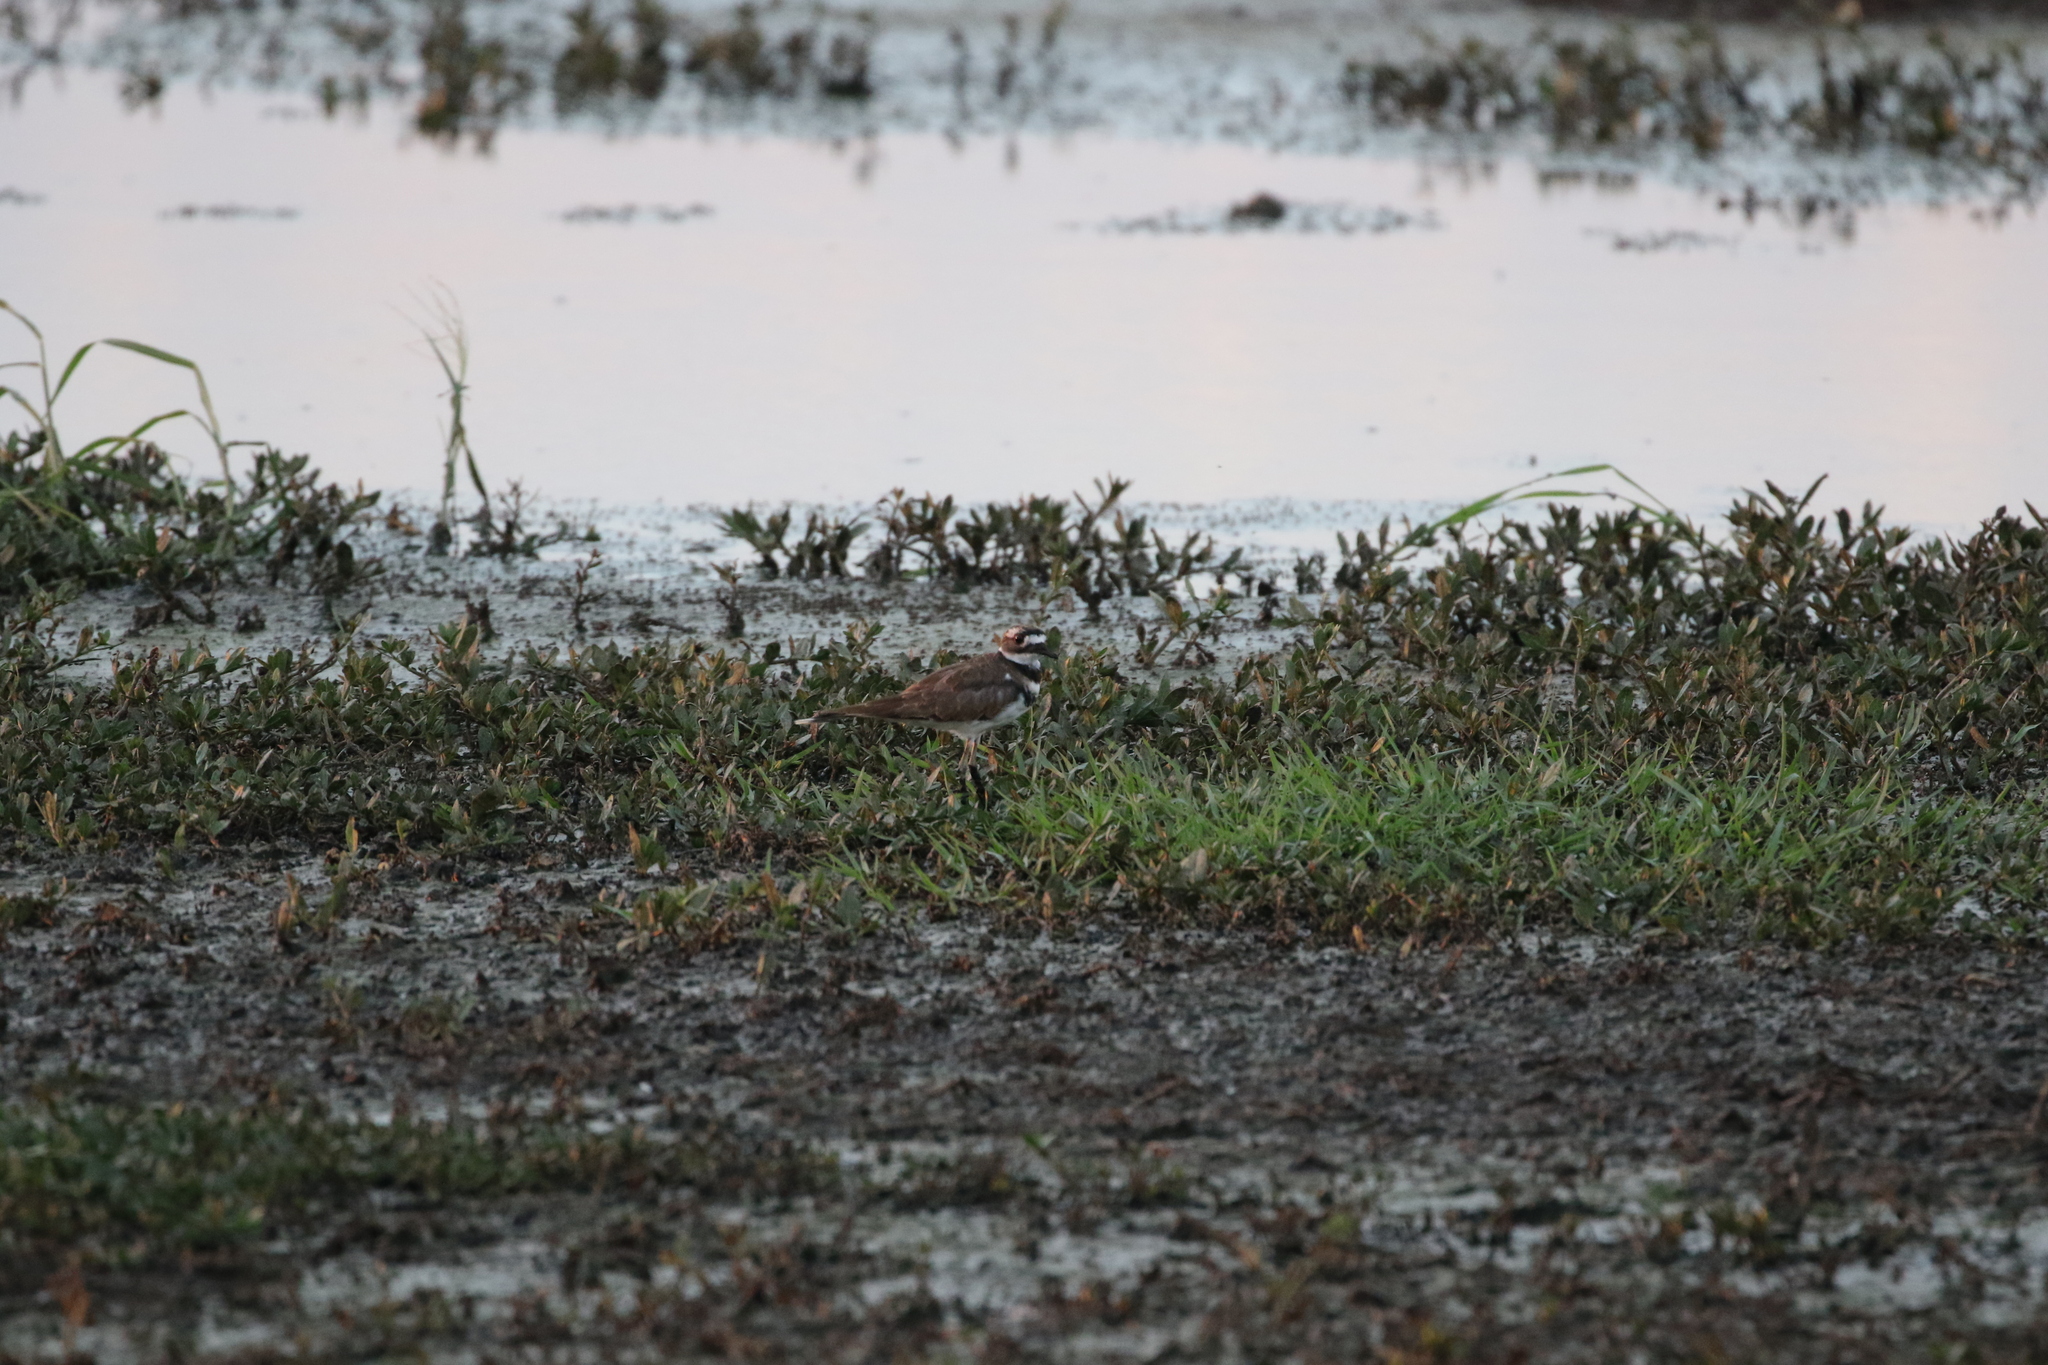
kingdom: Animalia
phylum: Chordata
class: Aves
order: Charadriiformes
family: Charadriidae
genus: Charadrius
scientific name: Charadrius vociferus
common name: Killdeer
